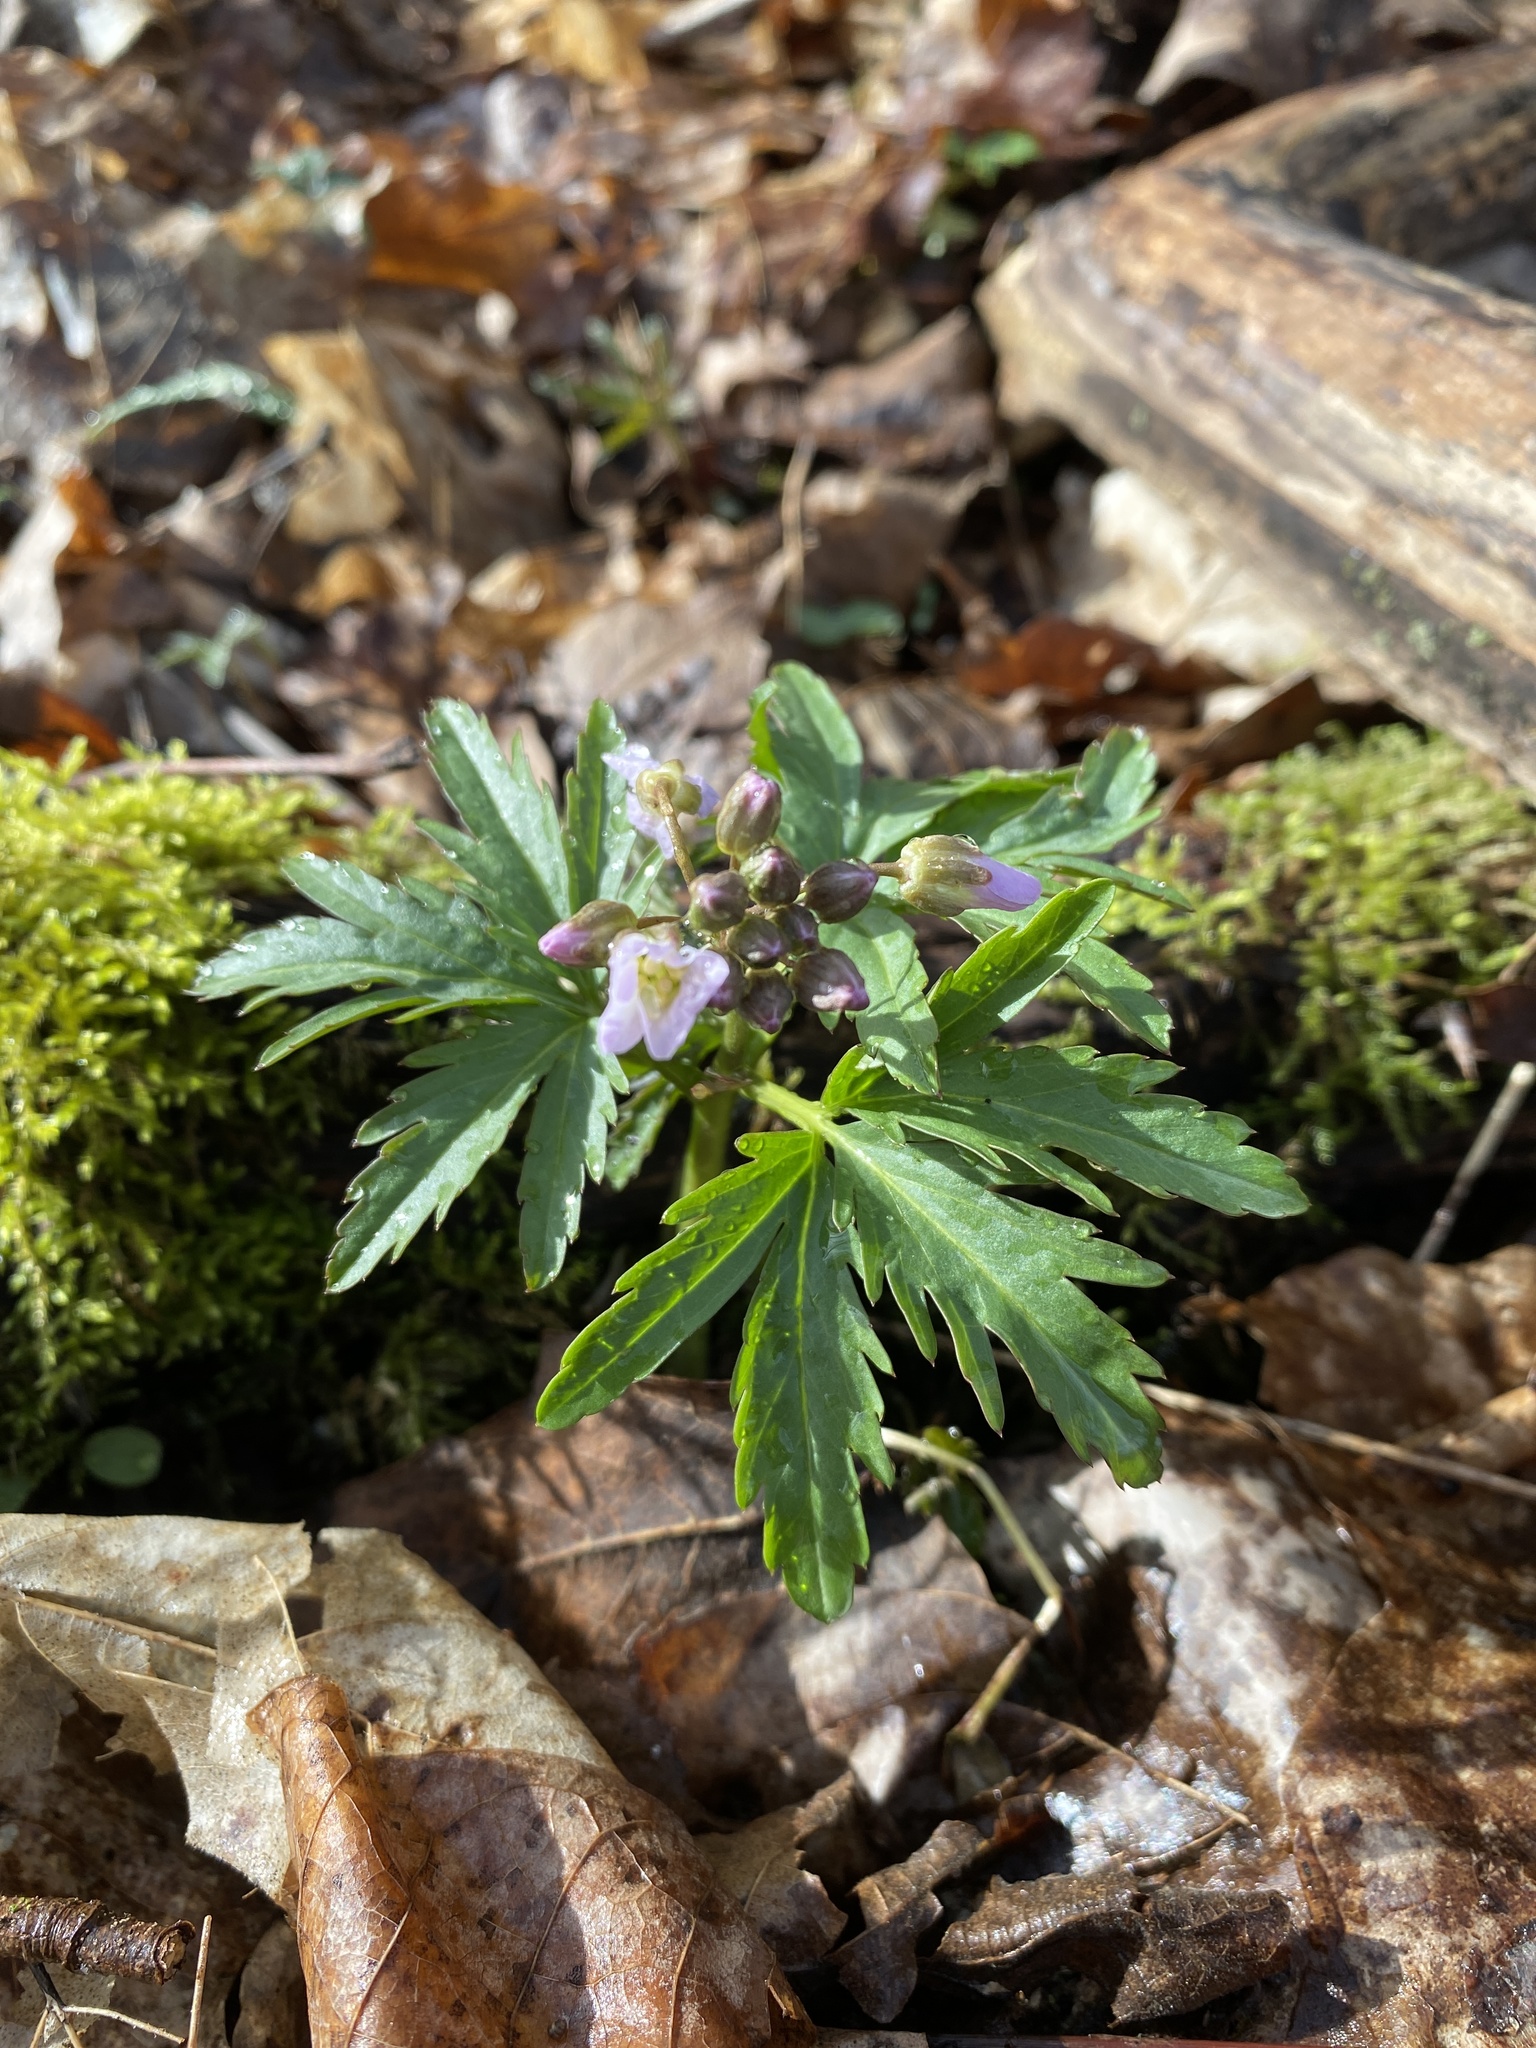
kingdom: Plantae
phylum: Tracheophyta
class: Magnoliopsida
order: Brassicales
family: Brassicaceae
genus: Cardamine
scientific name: Cardamine concatenata
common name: Cut-leaf toothcup
